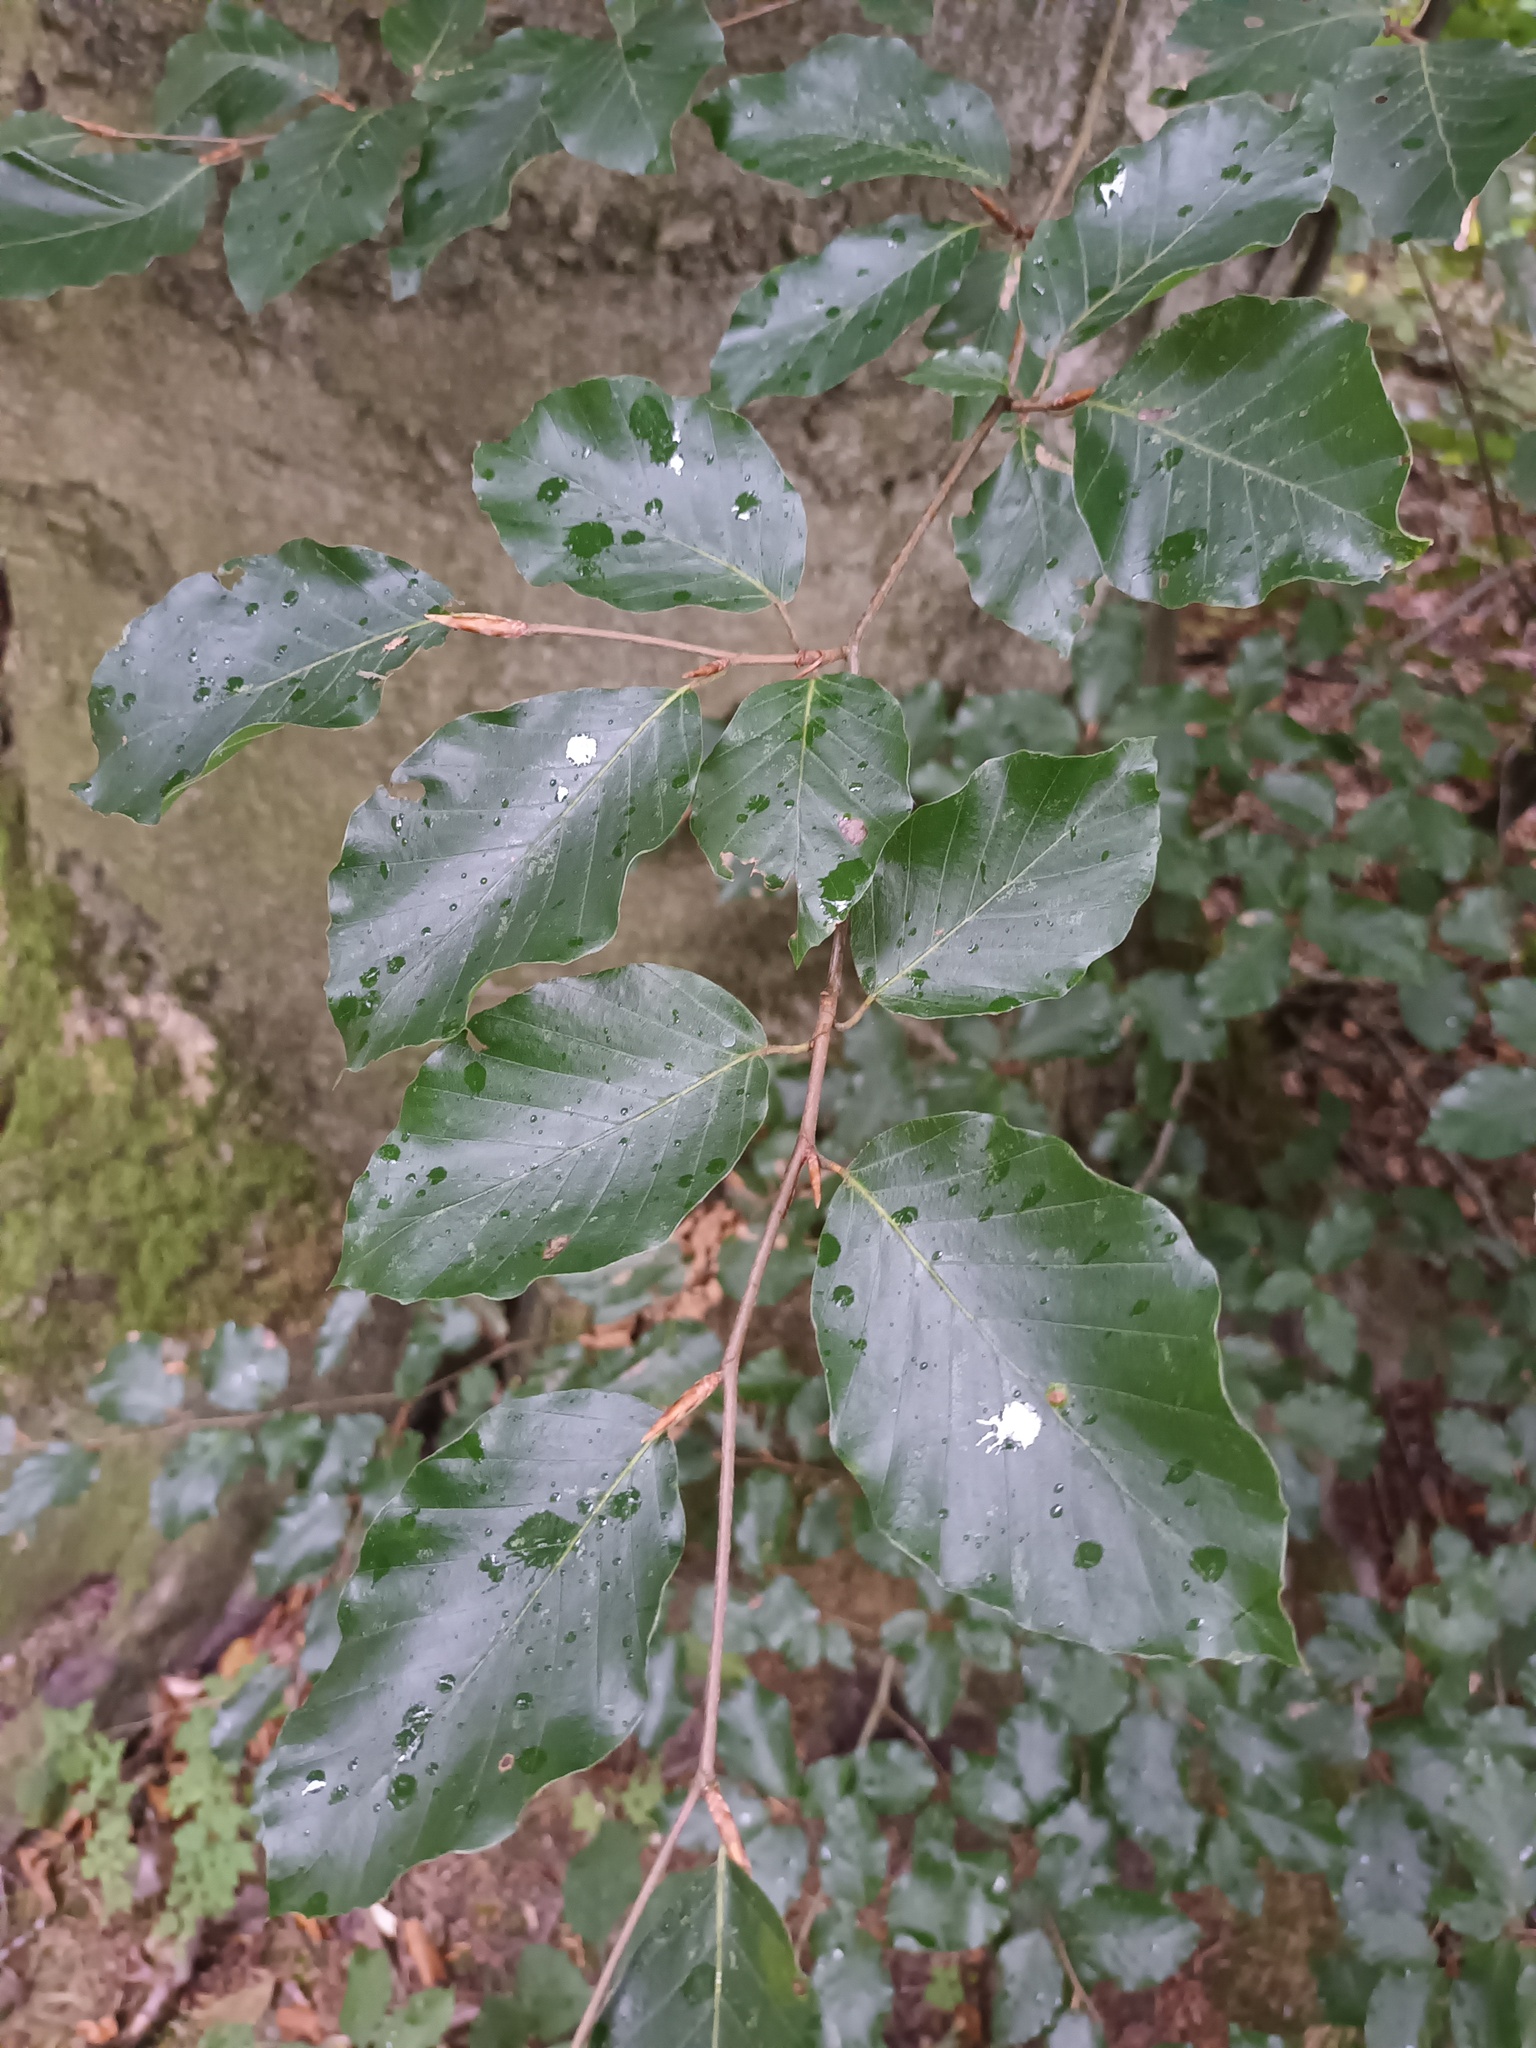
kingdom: Plantae
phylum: Tracheophyta
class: Magnoliopsida
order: Fagales
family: Fagaceae
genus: Fagus
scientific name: Fagus sylvatica
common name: Beech
